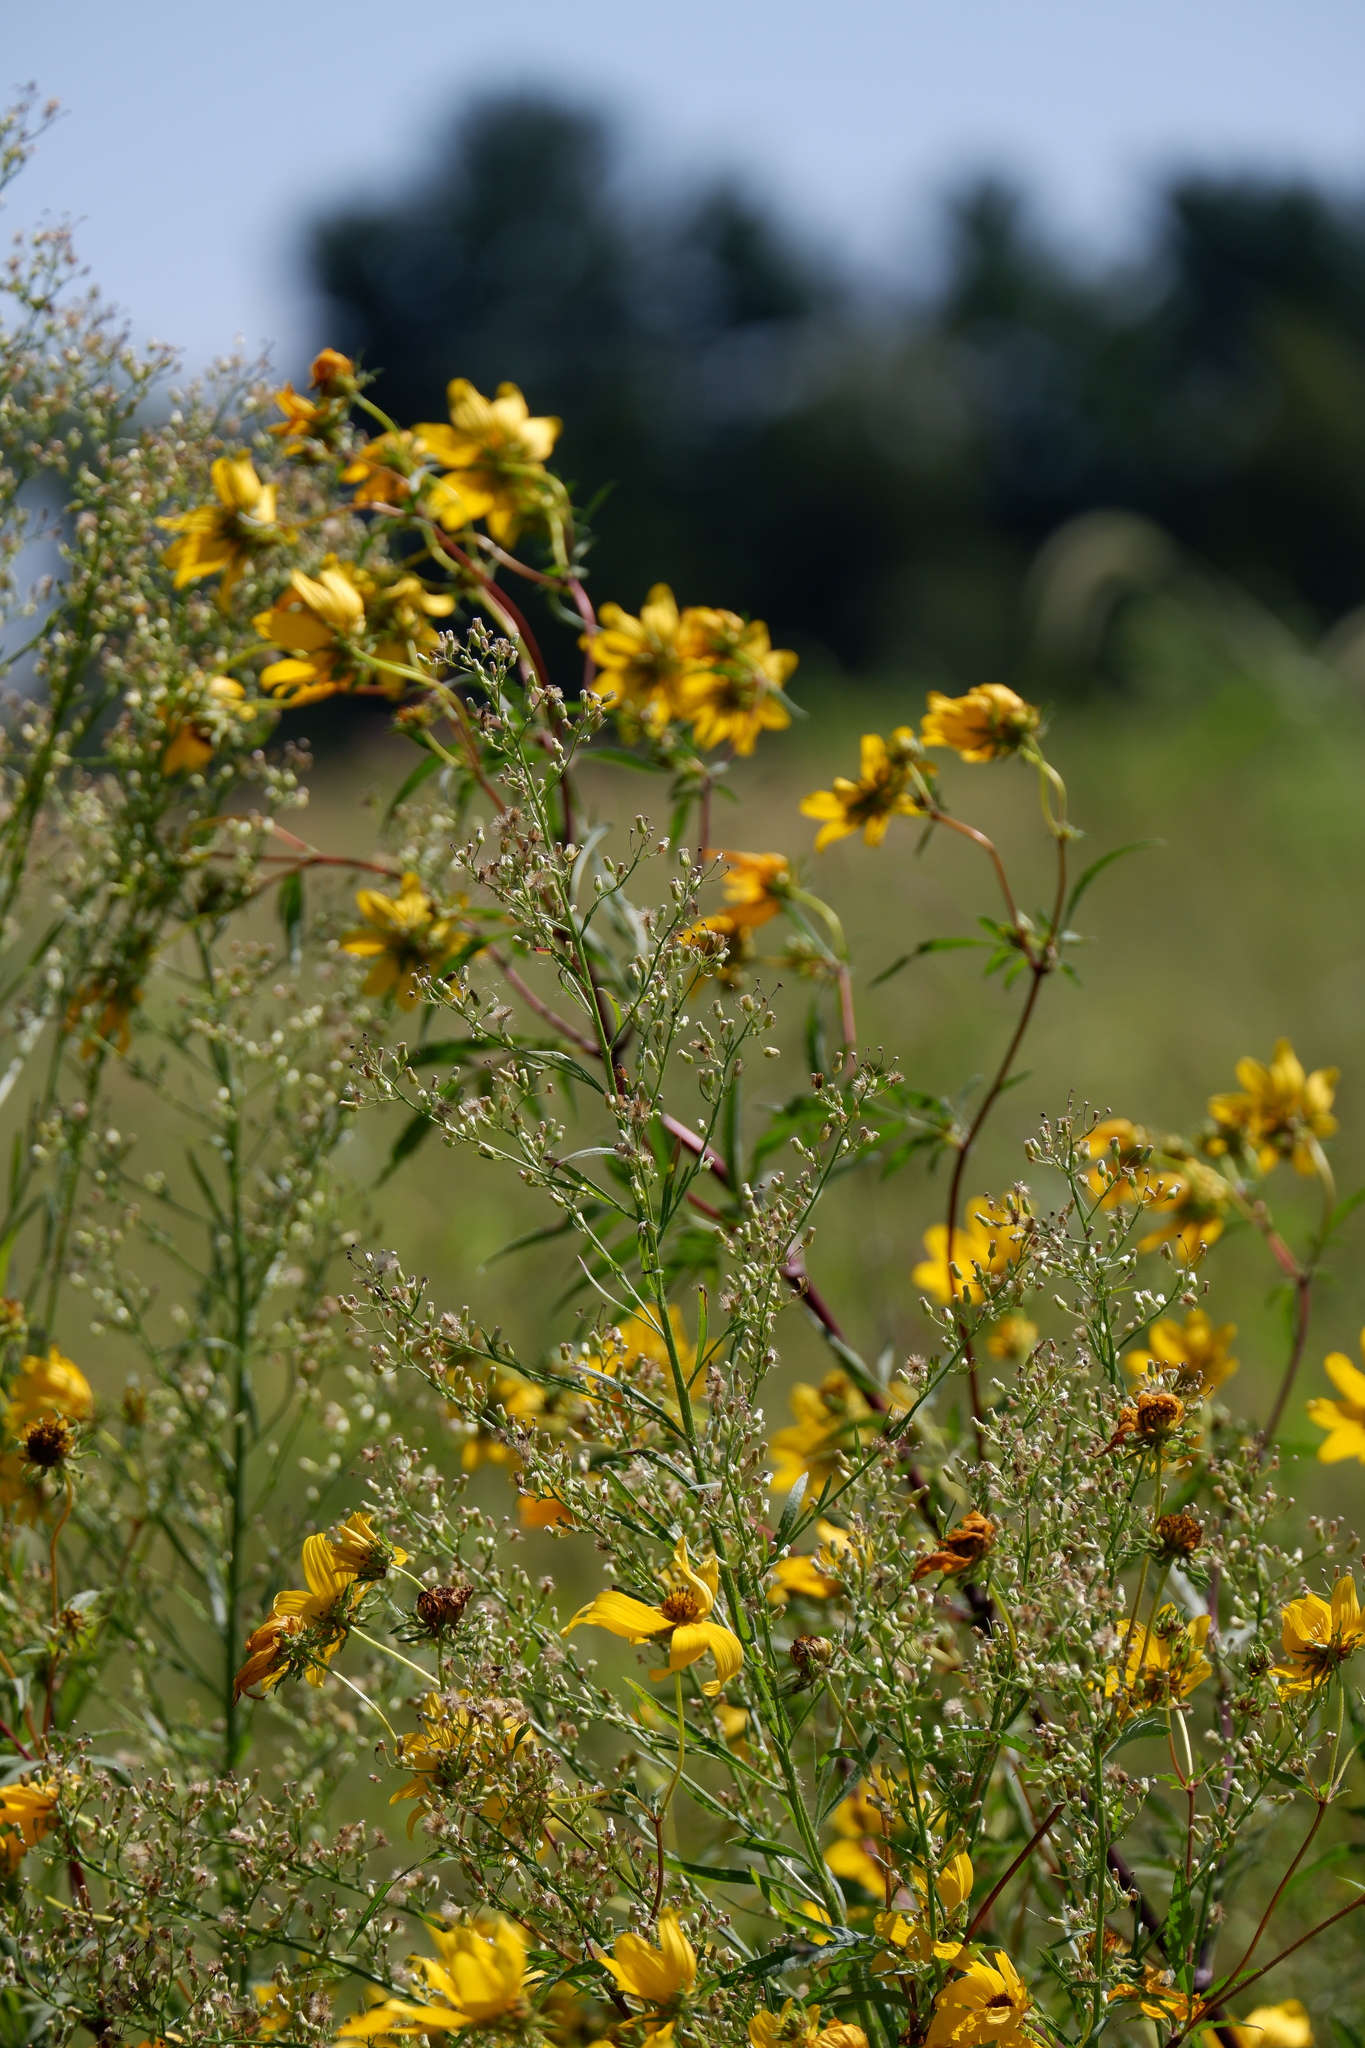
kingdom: Plantae
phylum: Tracheophyta
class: Magnoliopsida
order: Asterales
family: Asteraceae
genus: Erigeron
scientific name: Erigeron canadensis
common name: Canadian fleabane
